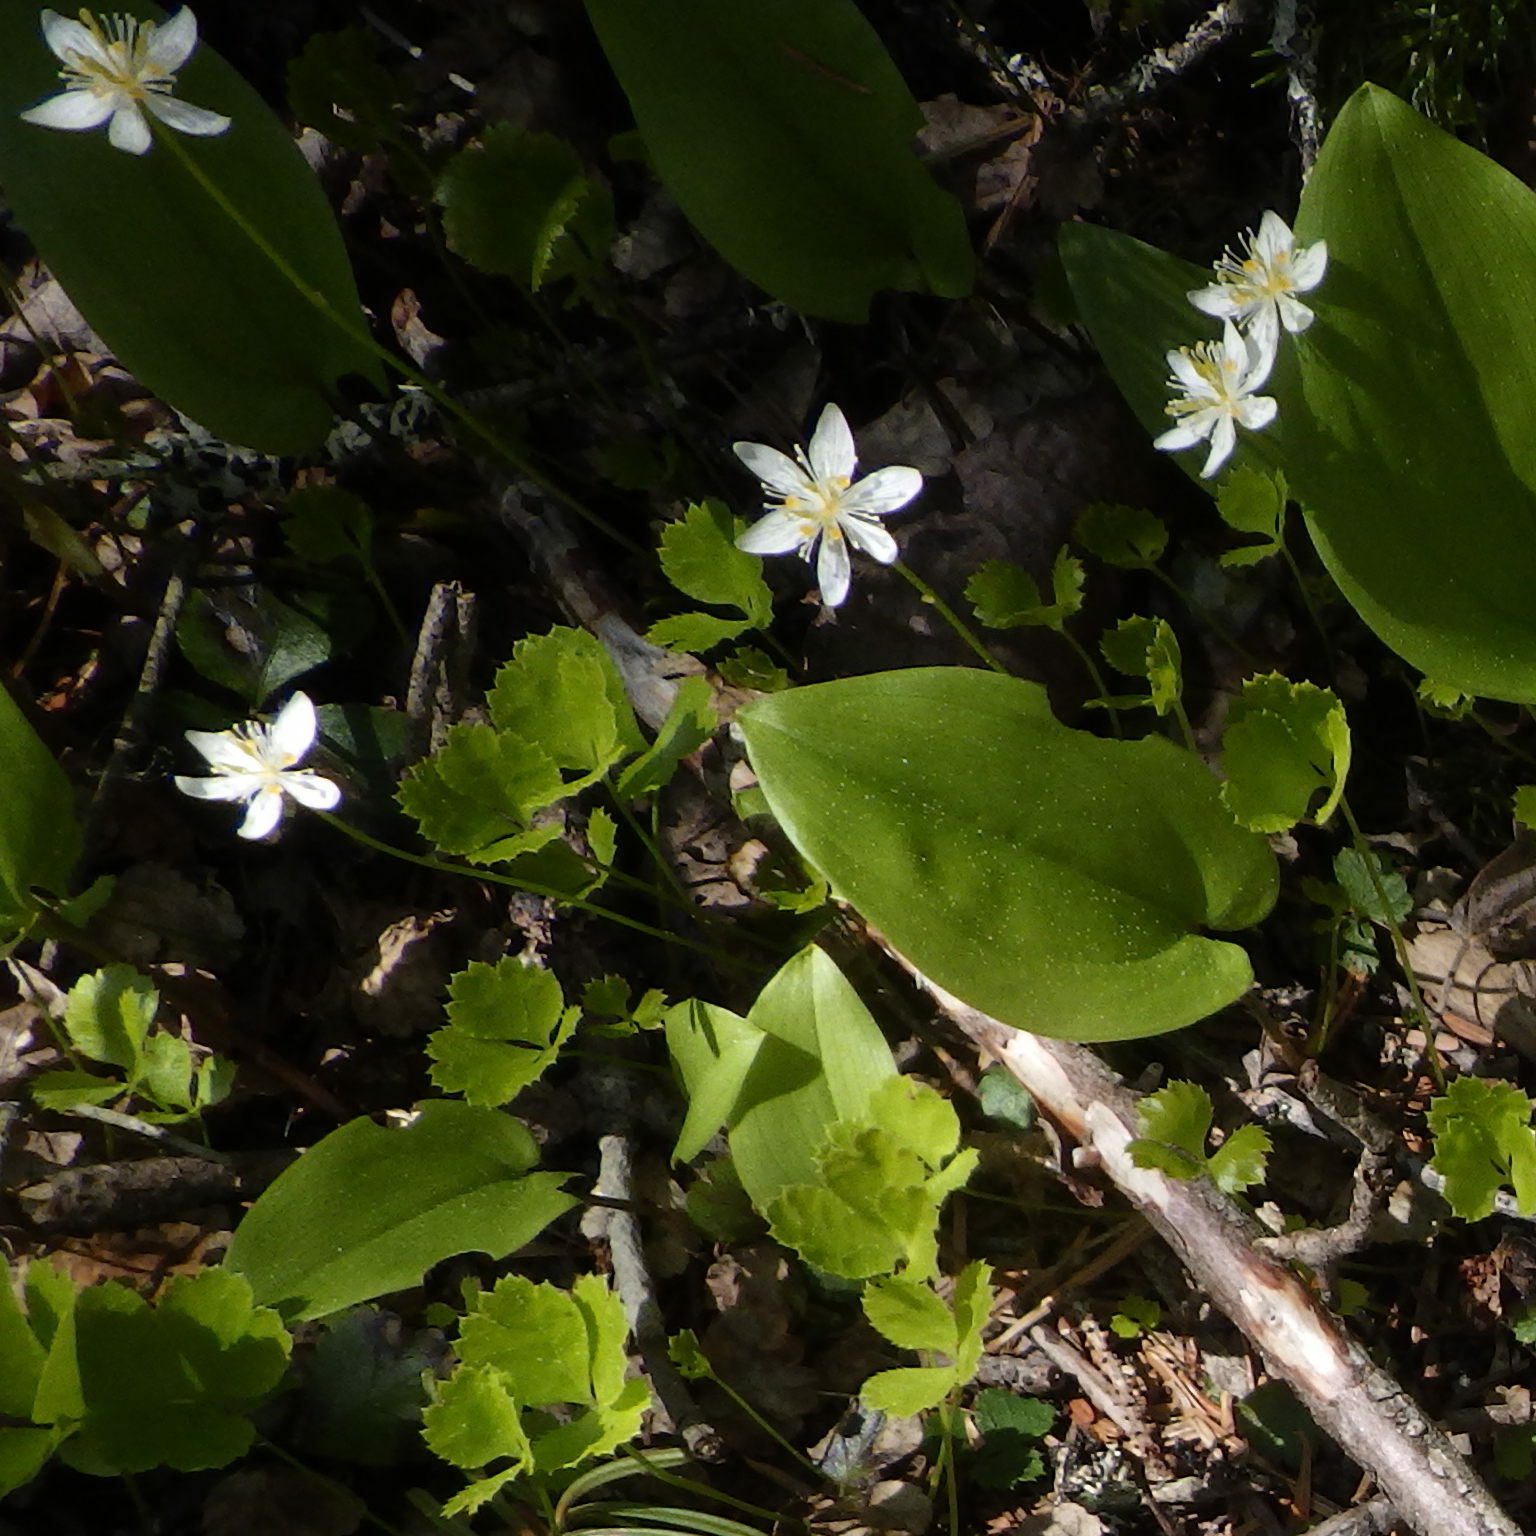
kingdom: Plantae
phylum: Tracheophyta
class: Magnoliopsida
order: Ranunculales
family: Ranunculaceae
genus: Coptis
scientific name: Coptis trifolia
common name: Canker-root
